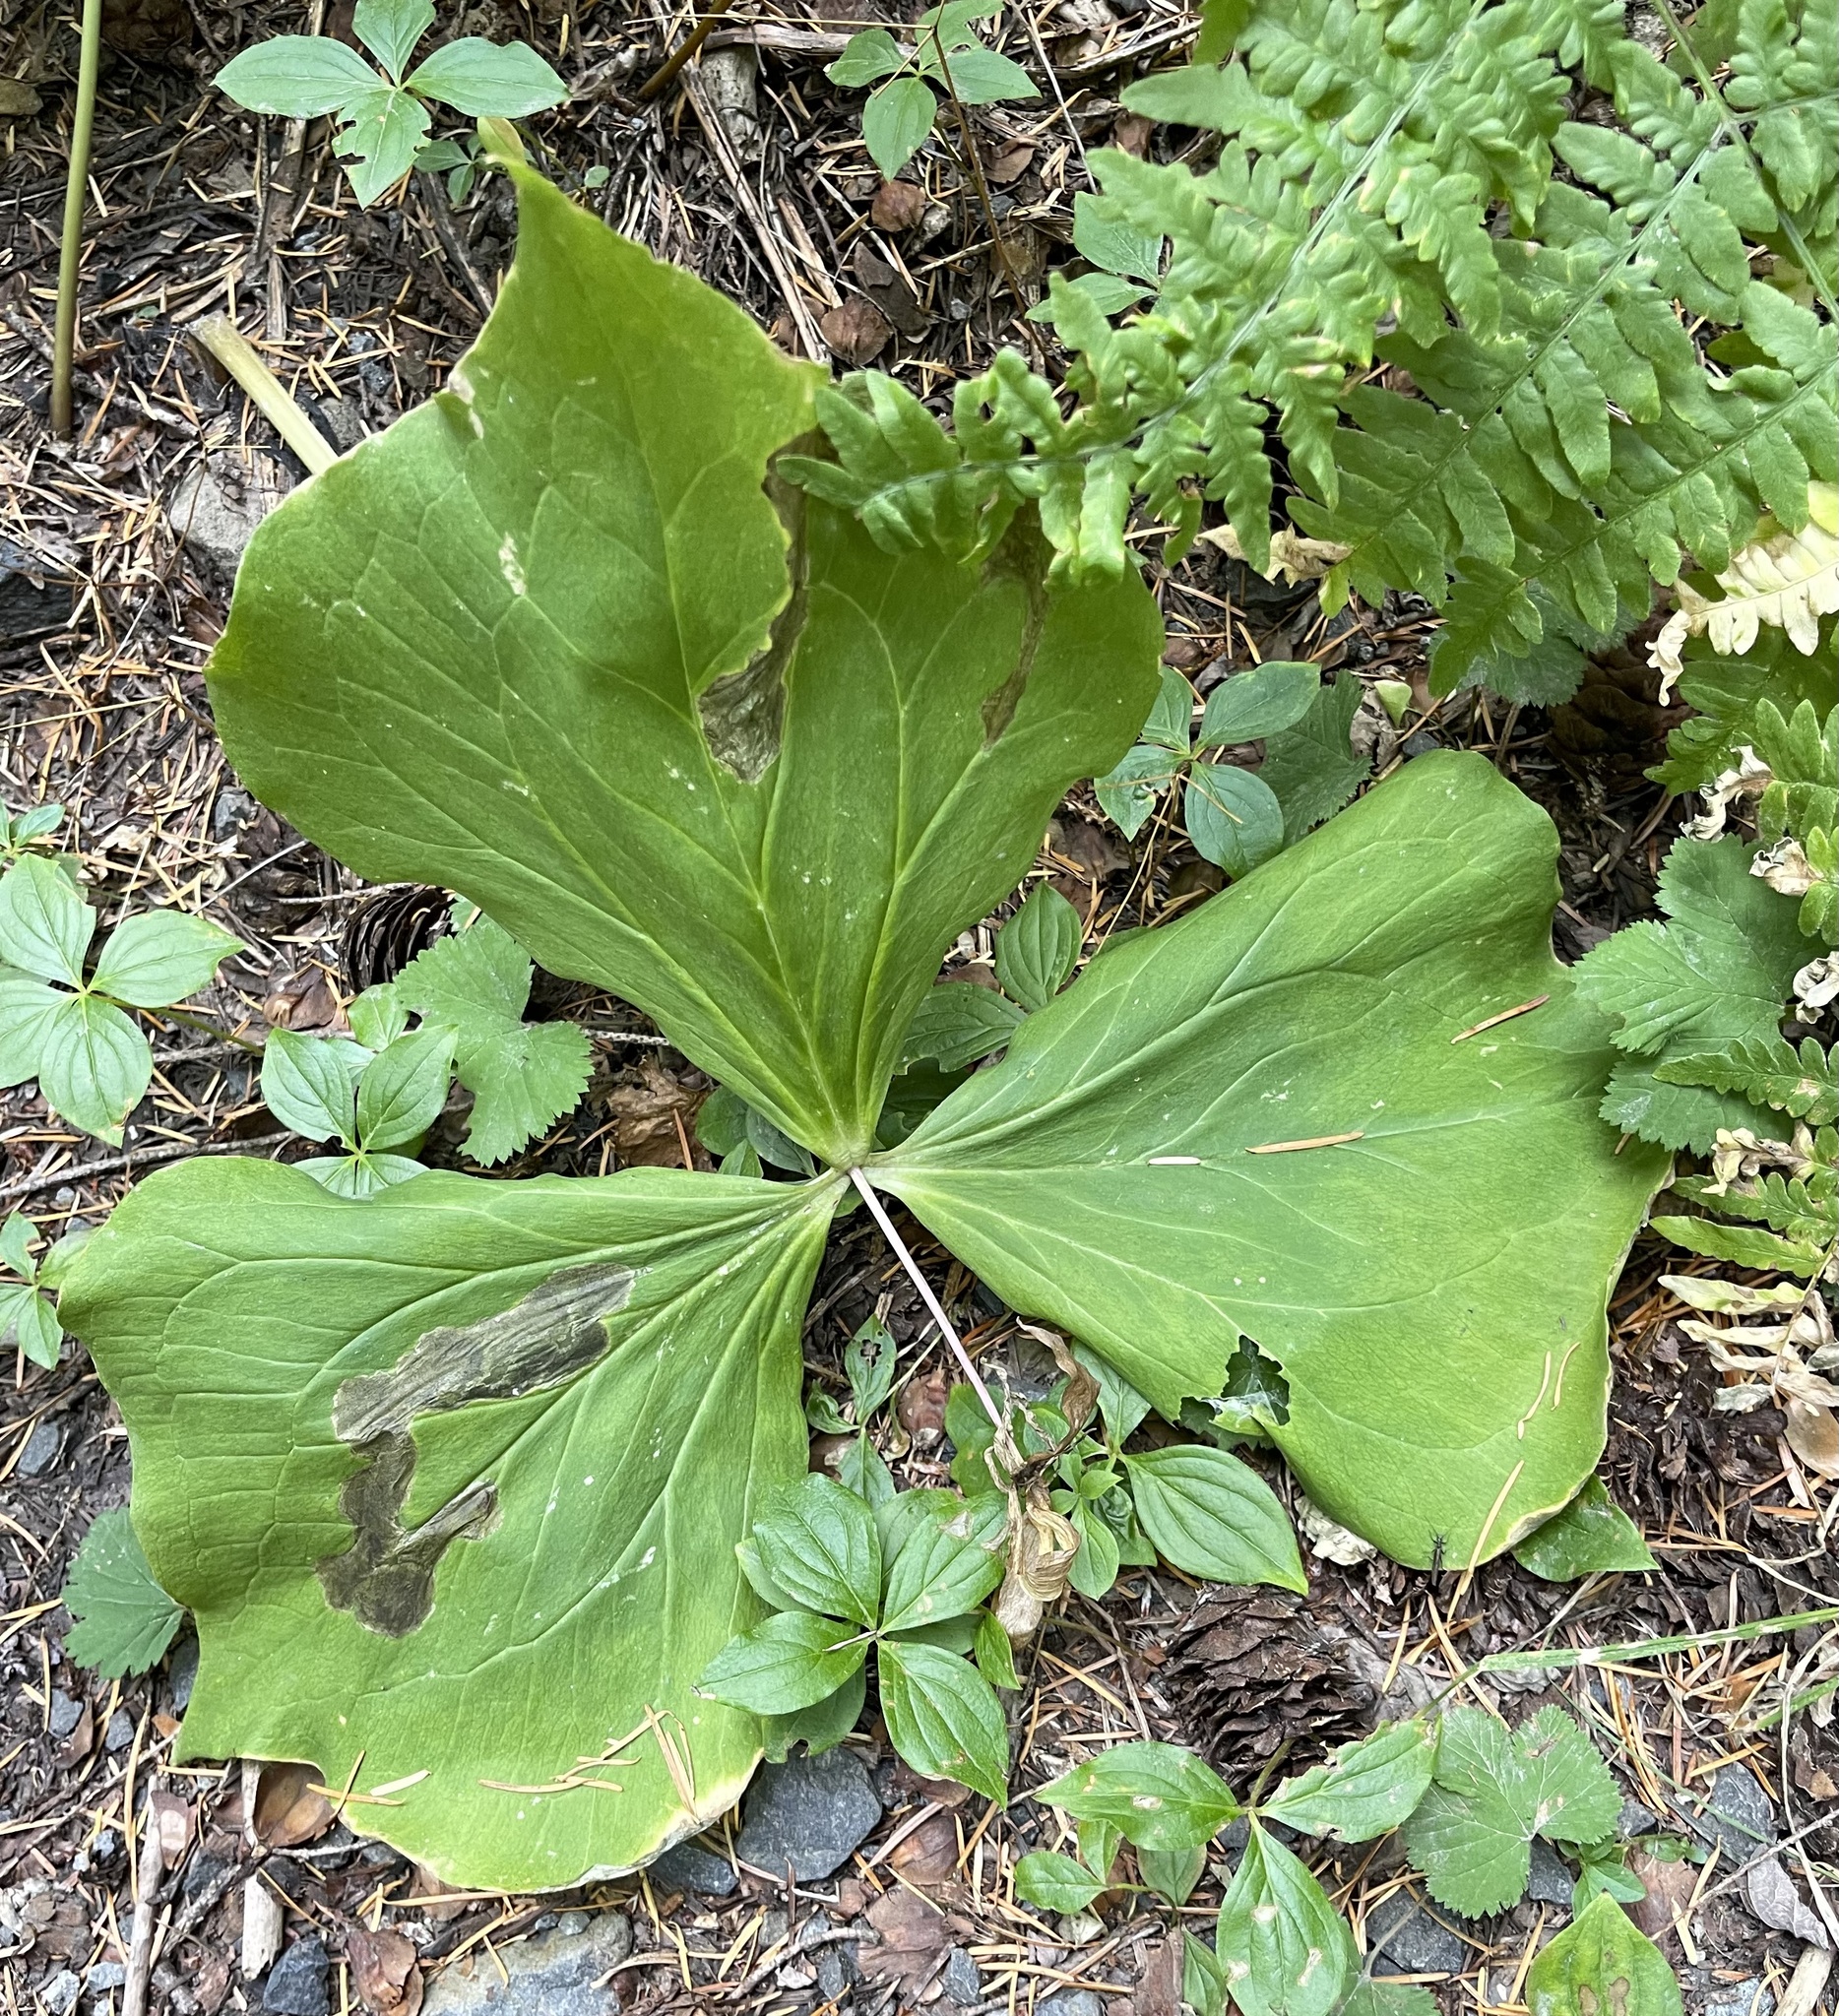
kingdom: Plantae
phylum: Tracheophyta
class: Liliopsida
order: Liliales
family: Melanthiaceae
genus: Trillium
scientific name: Trillium ovatum
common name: Pacific trillium
